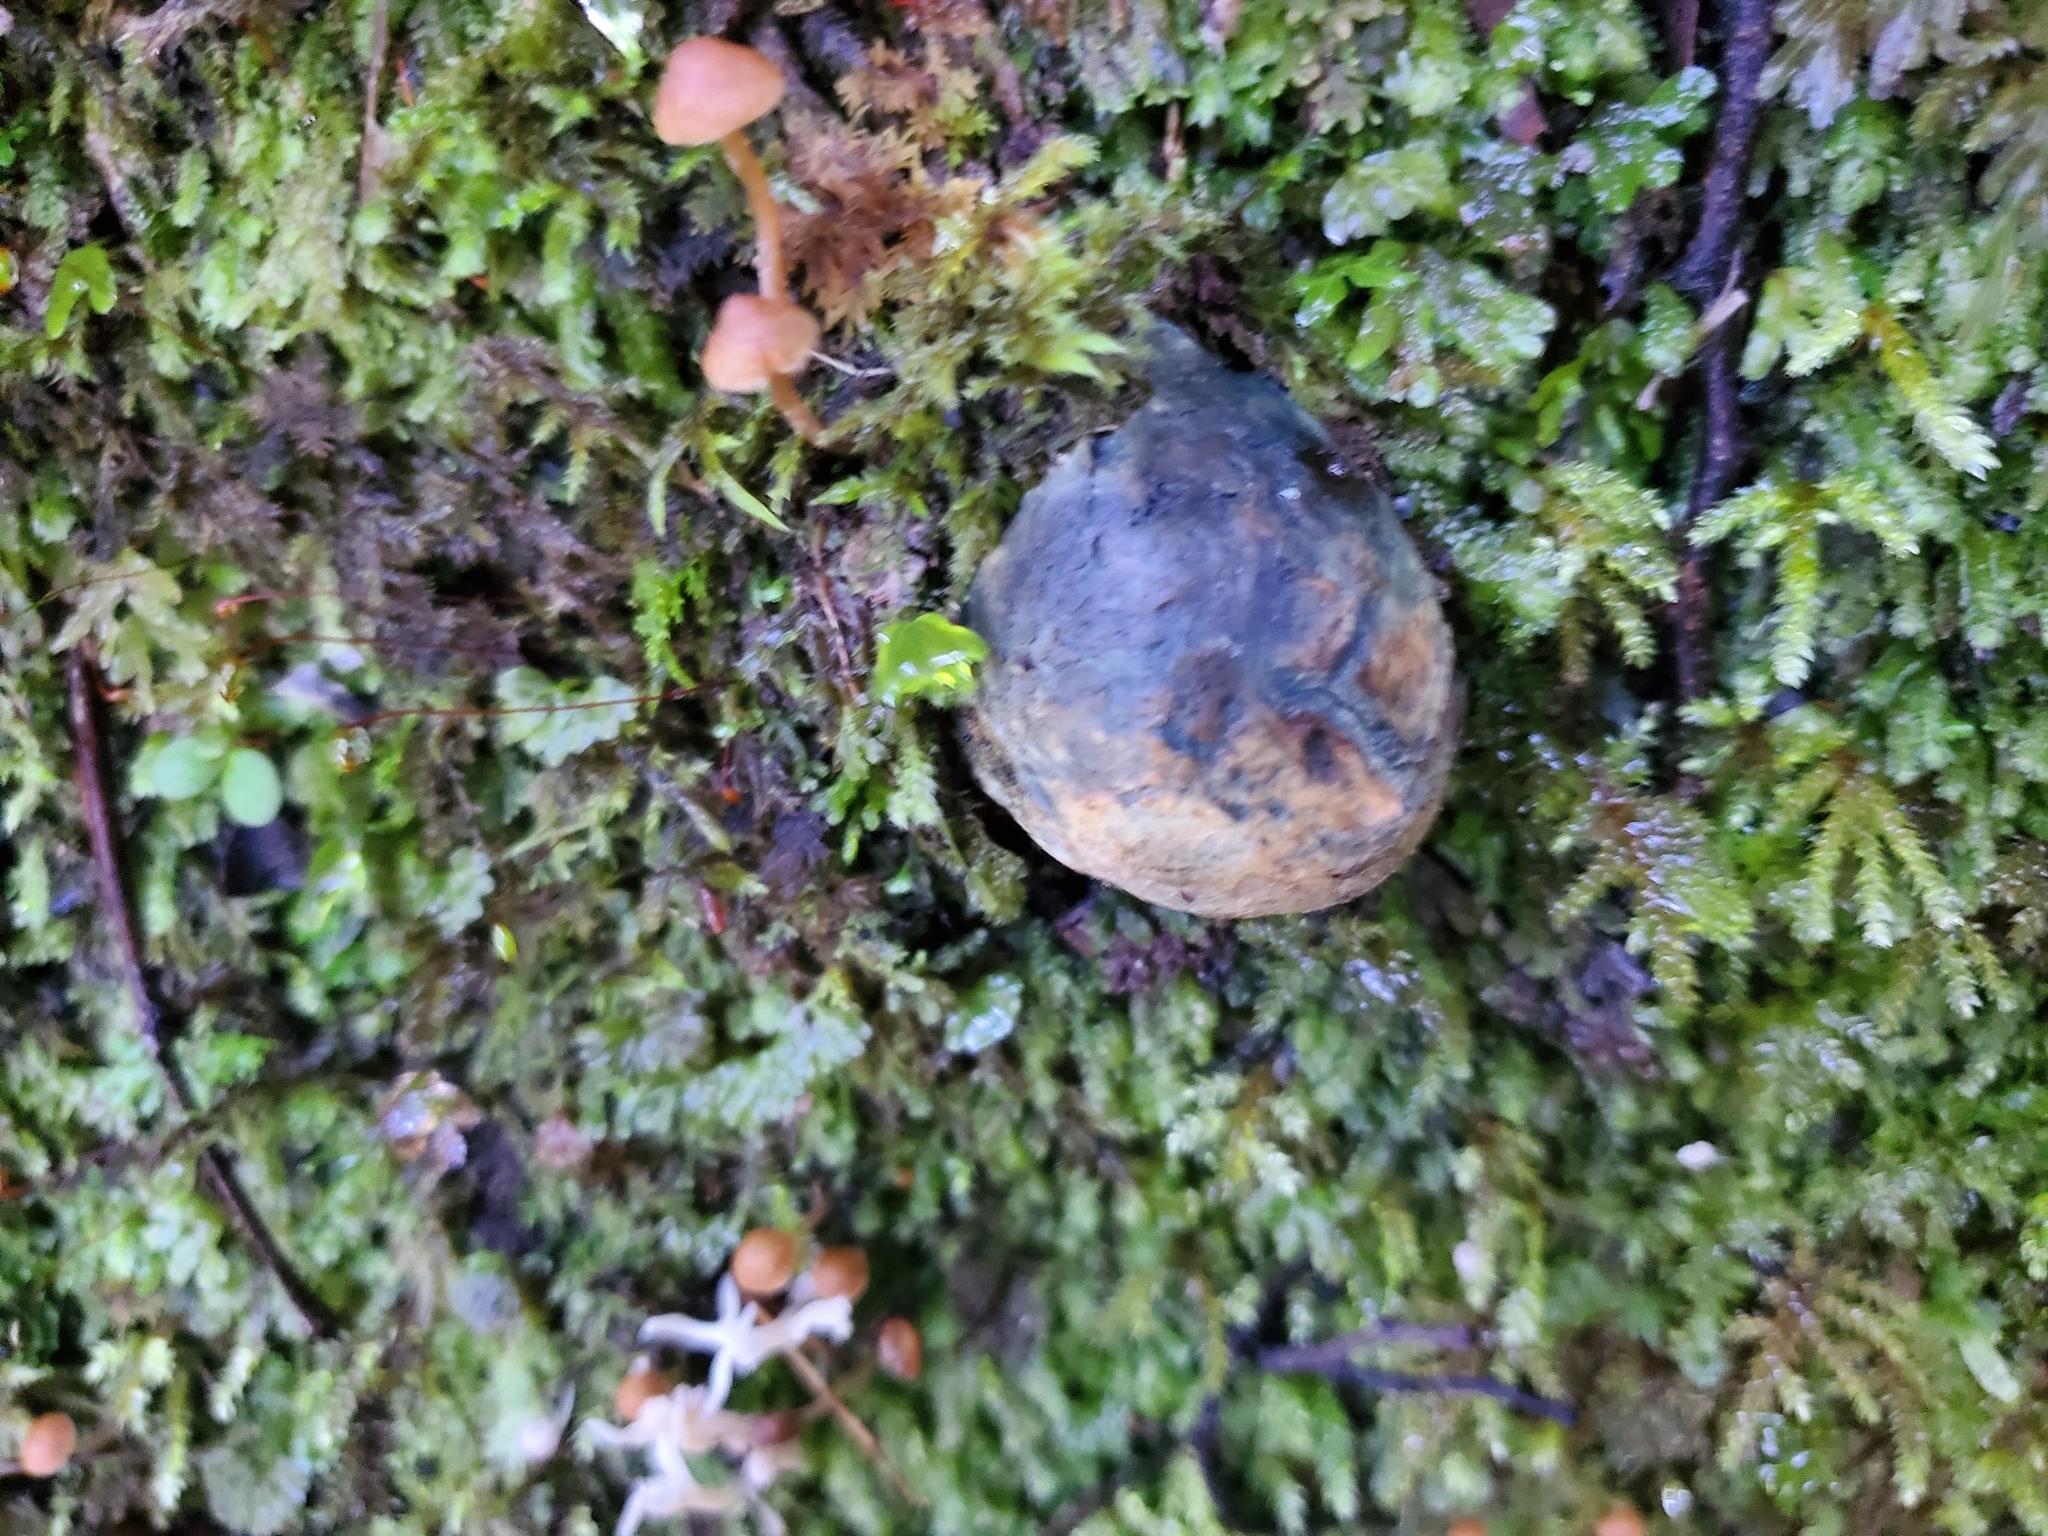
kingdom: Fungi
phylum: Basidiomycota
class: Agaricomycetes
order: Boletales
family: Boletaceae
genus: Leccinum
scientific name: Leccinum pachyderme
